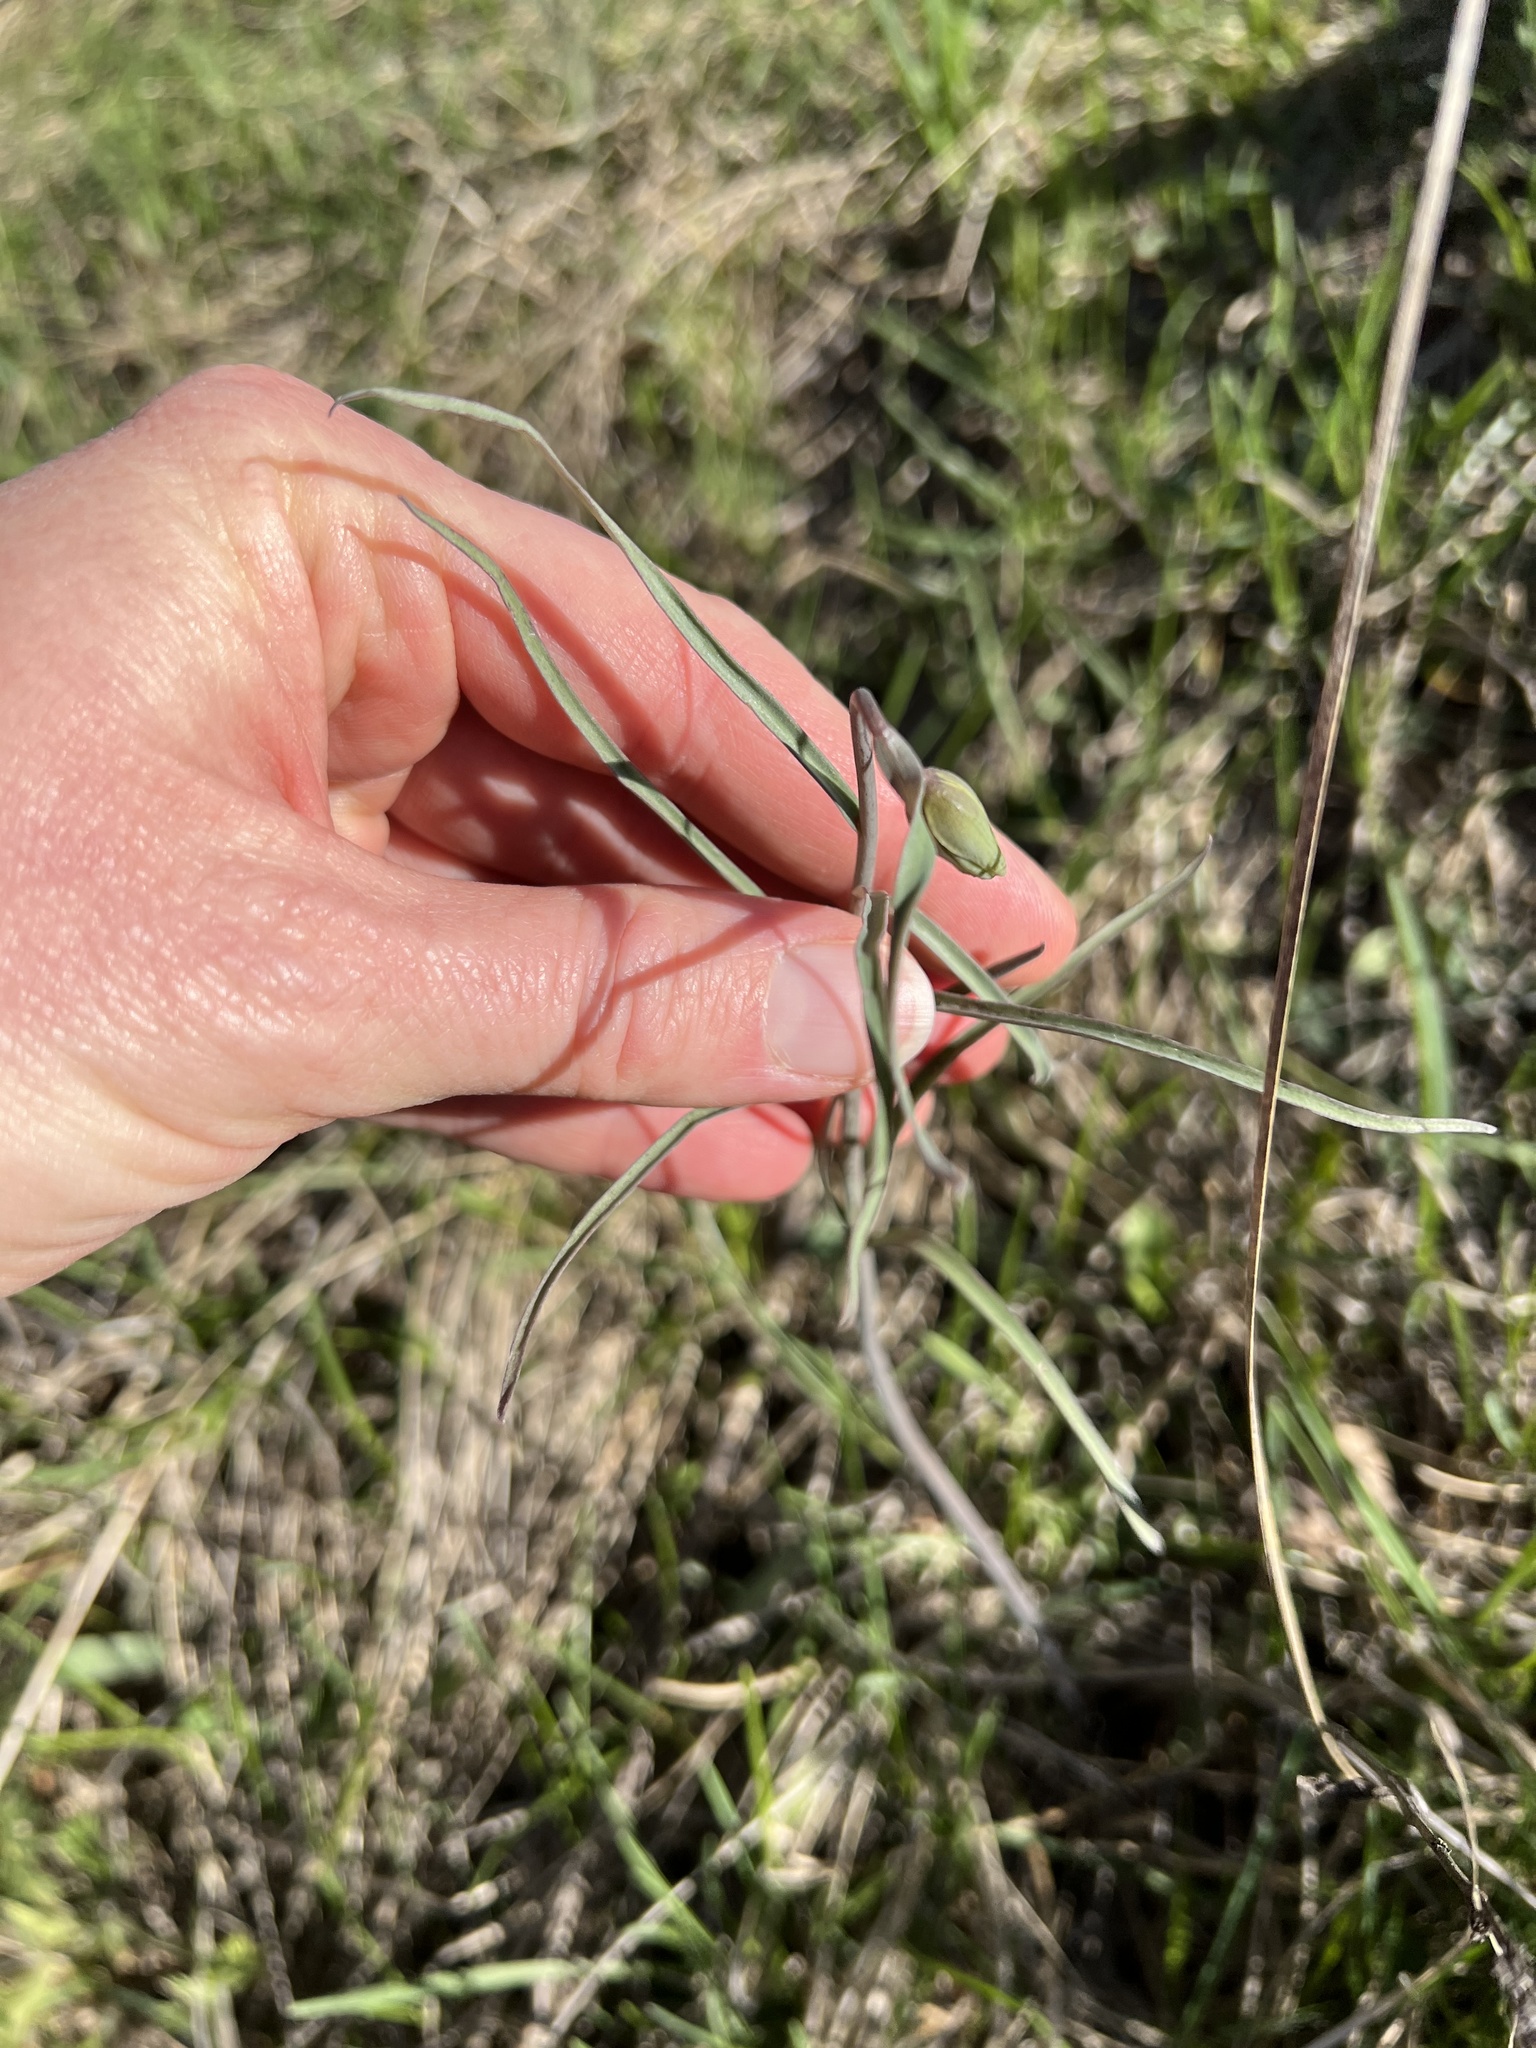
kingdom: Plantae
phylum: Tracheophyta
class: Liliopsida
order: Liliales
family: Liliaceae
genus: Fritillaria
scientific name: Fritillaria atropurpurea
